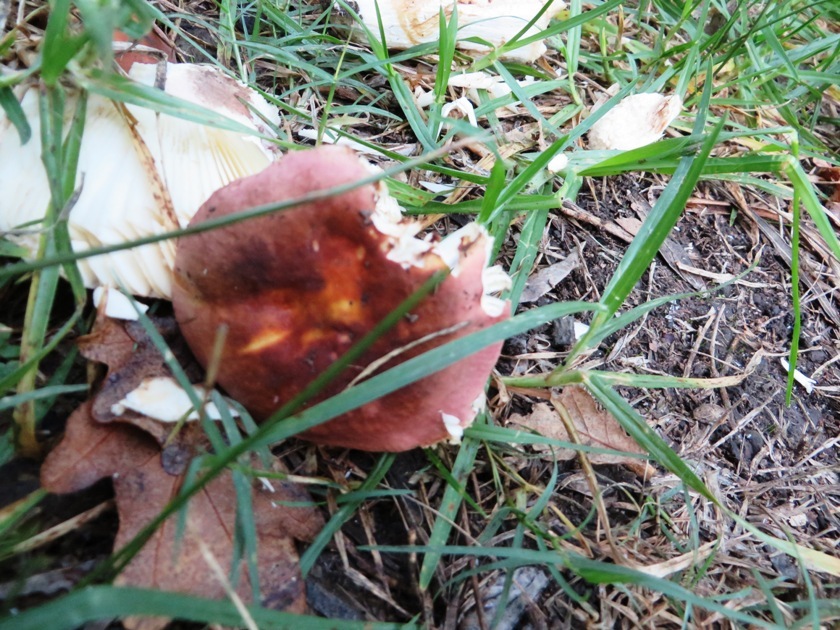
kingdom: Fungi
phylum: Basidiomycota
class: Agaricomycetes
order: Russulales
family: Russulaceae
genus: Russula
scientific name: Russula capensis
